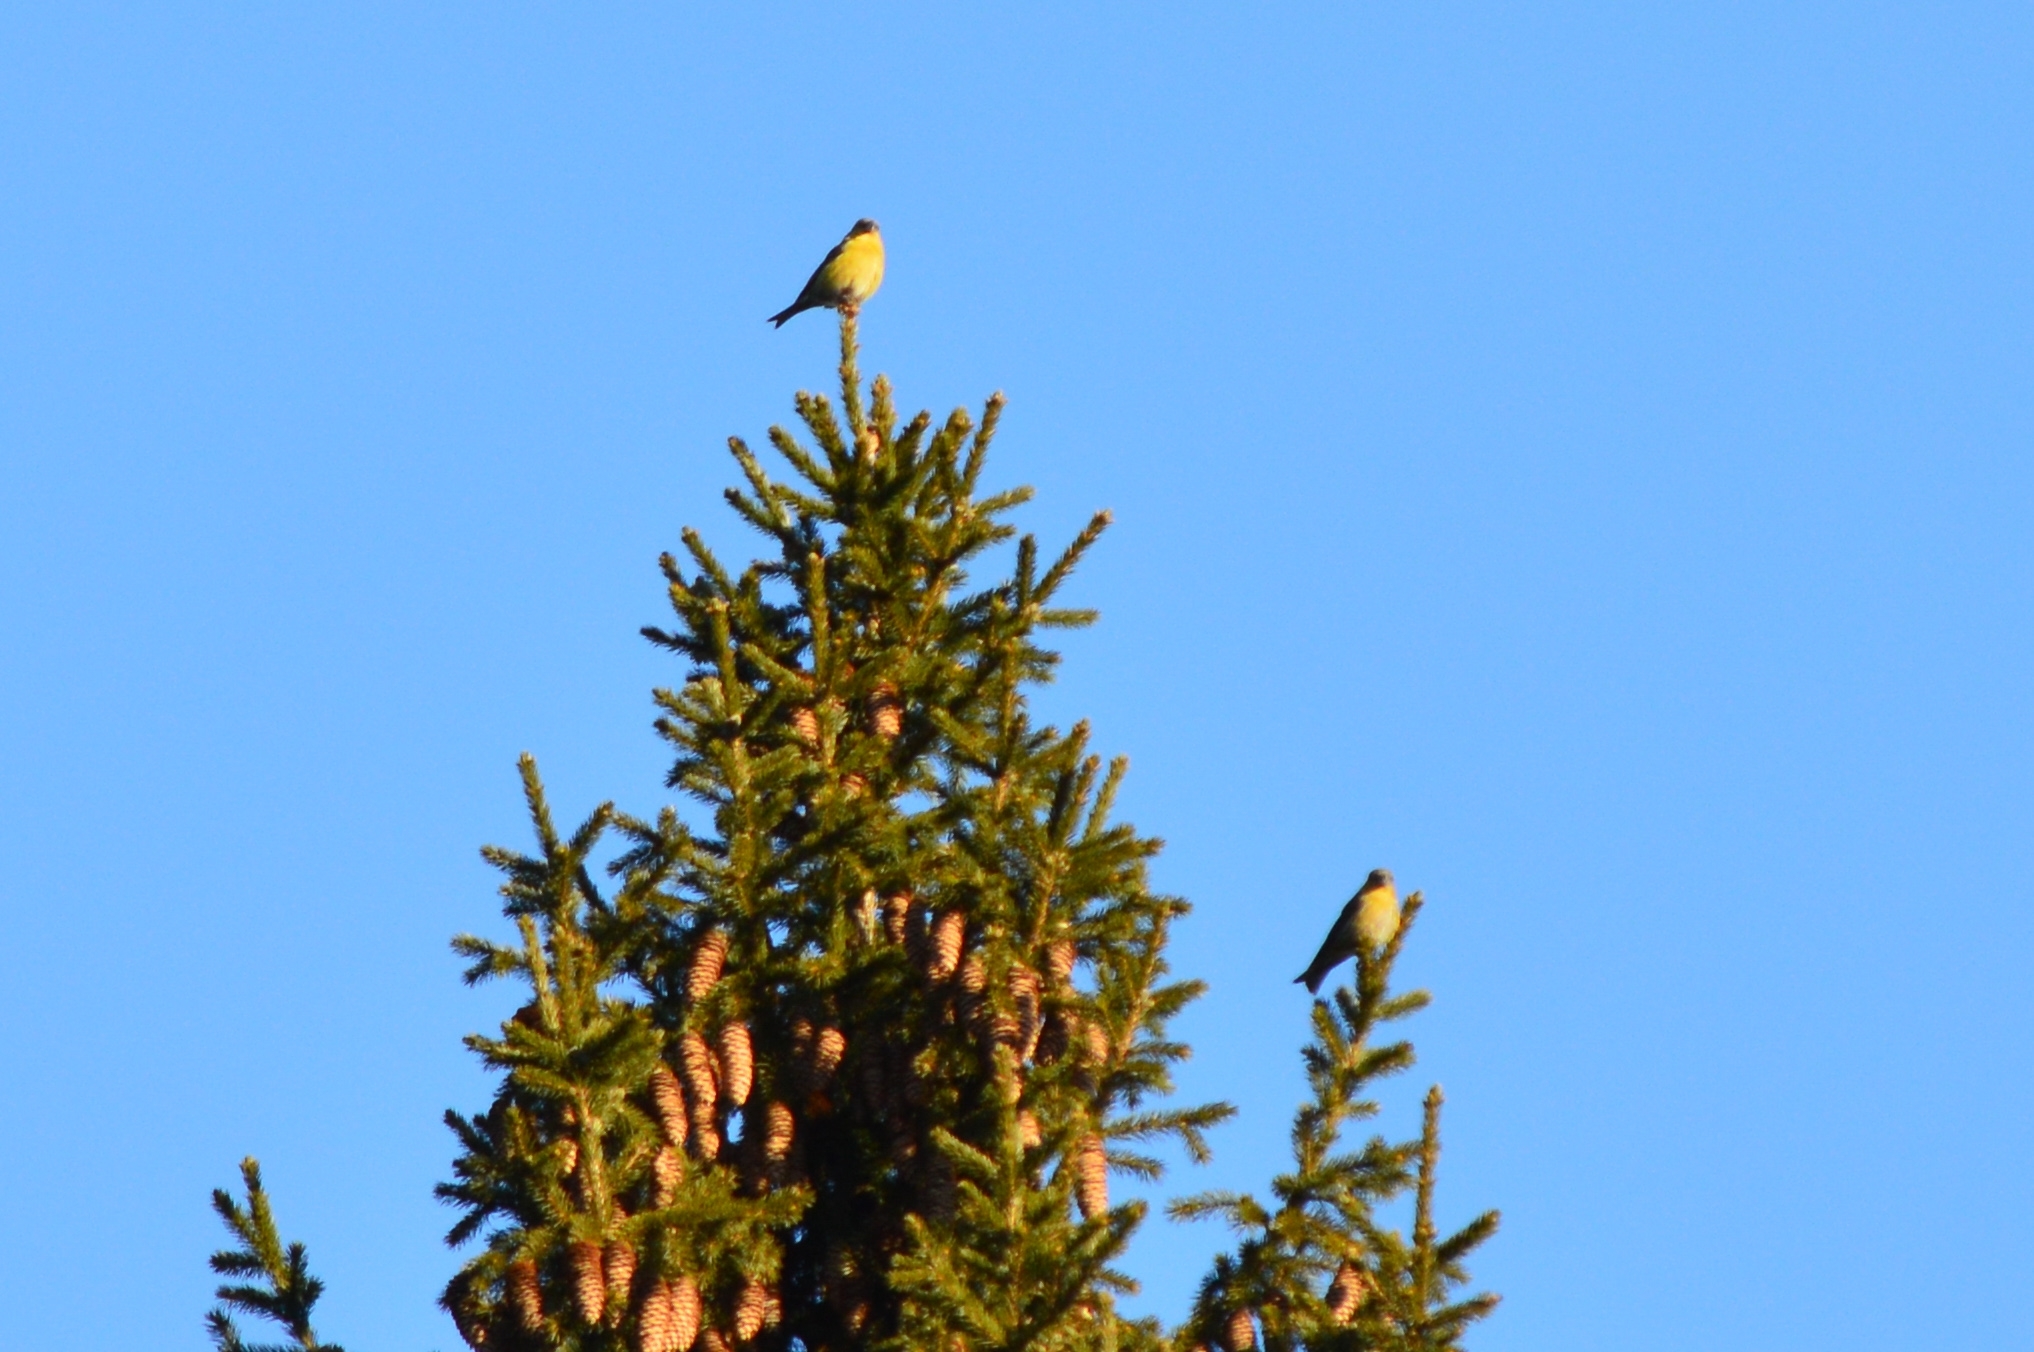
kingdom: Animalia
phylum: Chordata
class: Aves
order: Passeriformes
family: Fringillidae
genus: Loxia
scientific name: Loxia curvirostra
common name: Red crossbill
